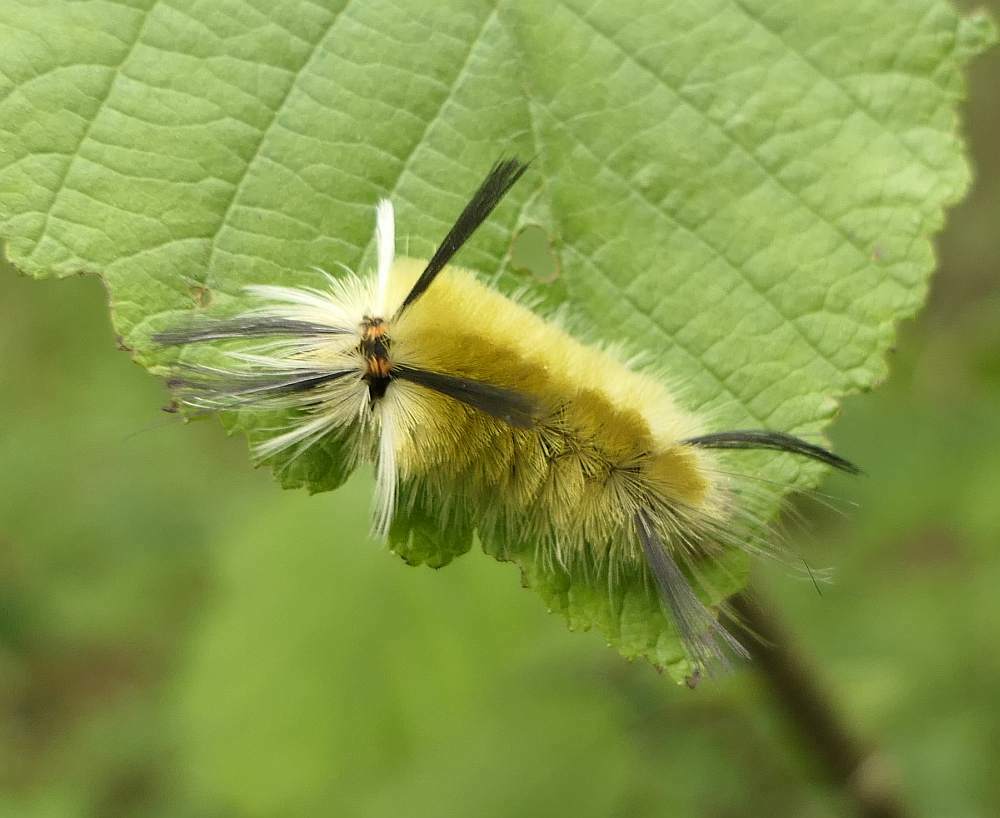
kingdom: Animalia
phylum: Arthropoda
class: Insecta
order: Lepidoptera
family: Erebidae
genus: Halysidota
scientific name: Halysidota tessellaris
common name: Banded tussock moth
